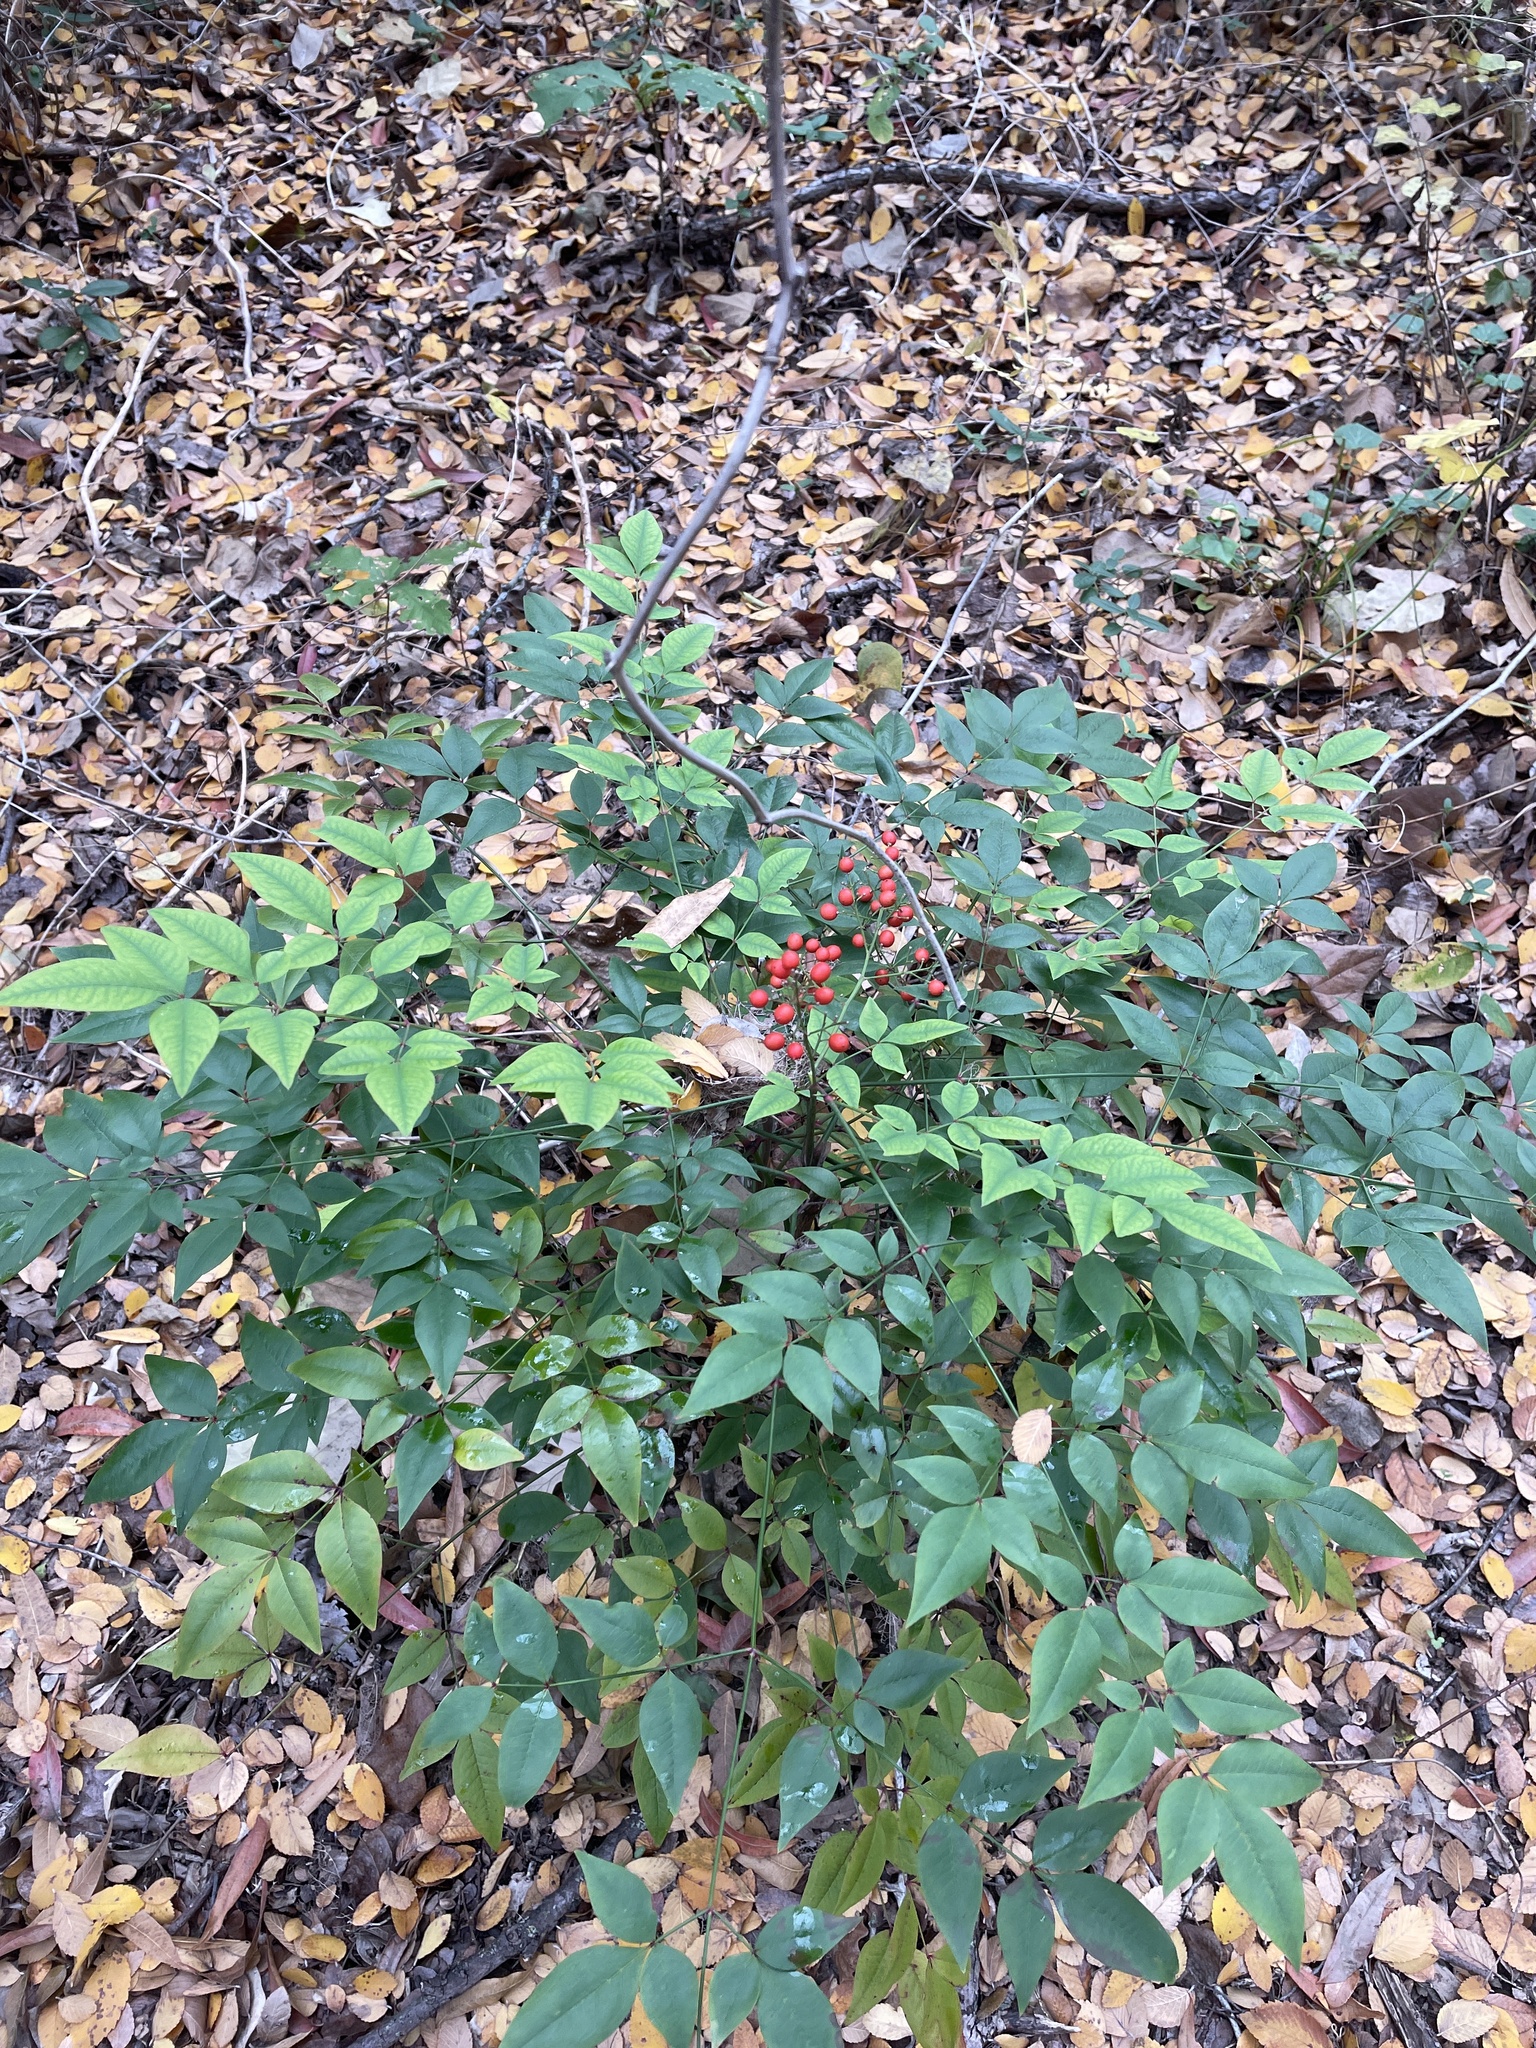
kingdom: Plantae
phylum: Tracheophyta
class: Magnoliopsida
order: Ranunculales
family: Berberidaceae
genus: Nandina
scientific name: Nandina domestica
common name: Sacred bamboo
